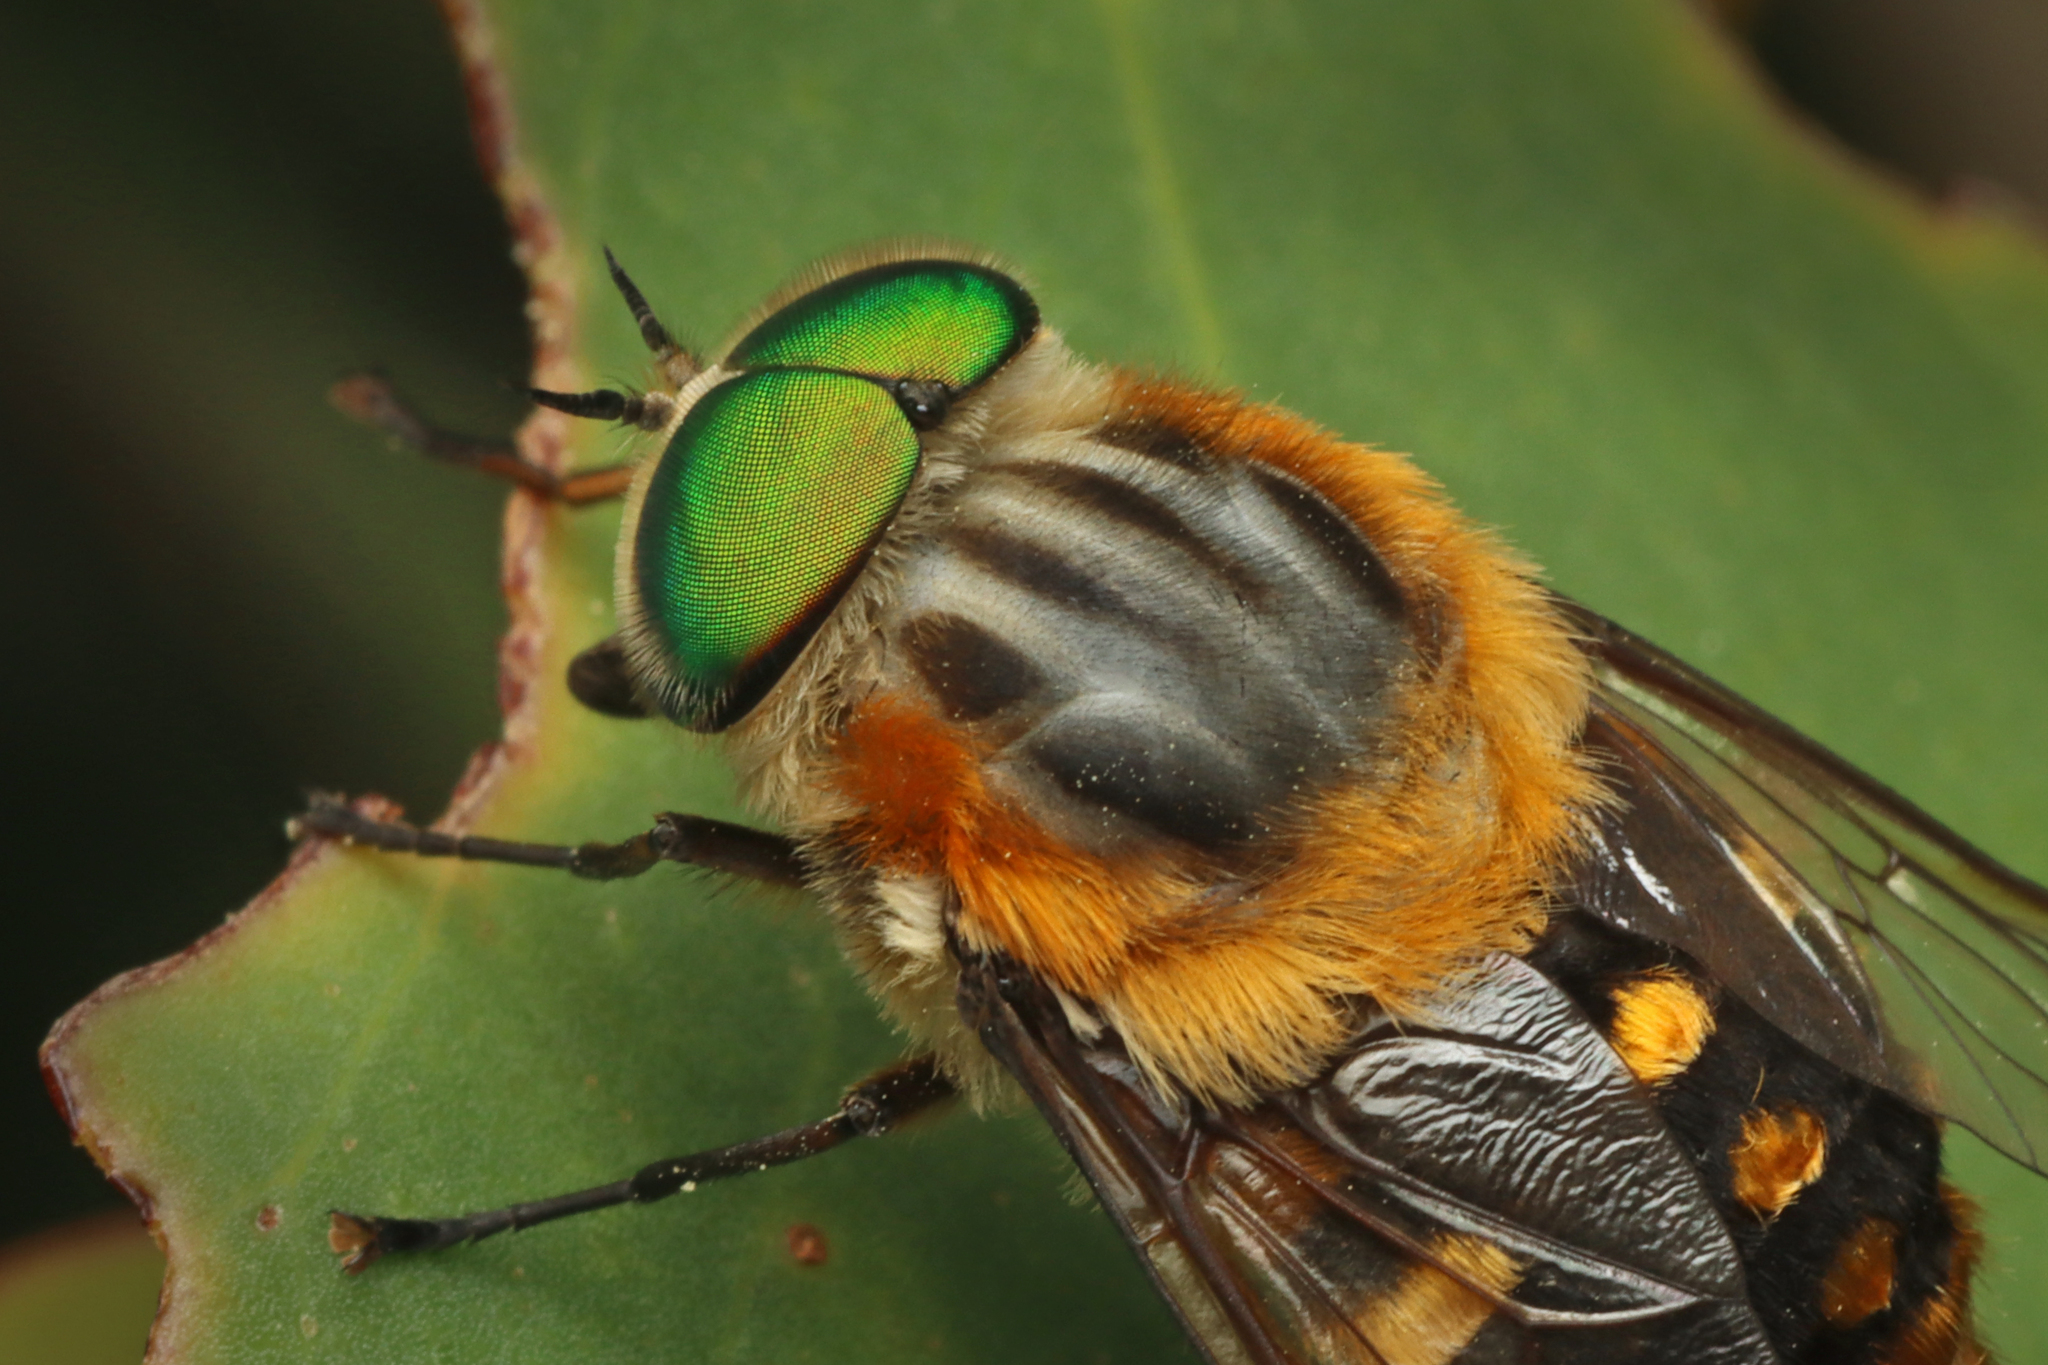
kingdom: Animalia
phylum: Arthropoda
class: Insecta
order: Diptera
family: Tabanidae
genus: Scaptia
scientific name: Scaptia auriflua
